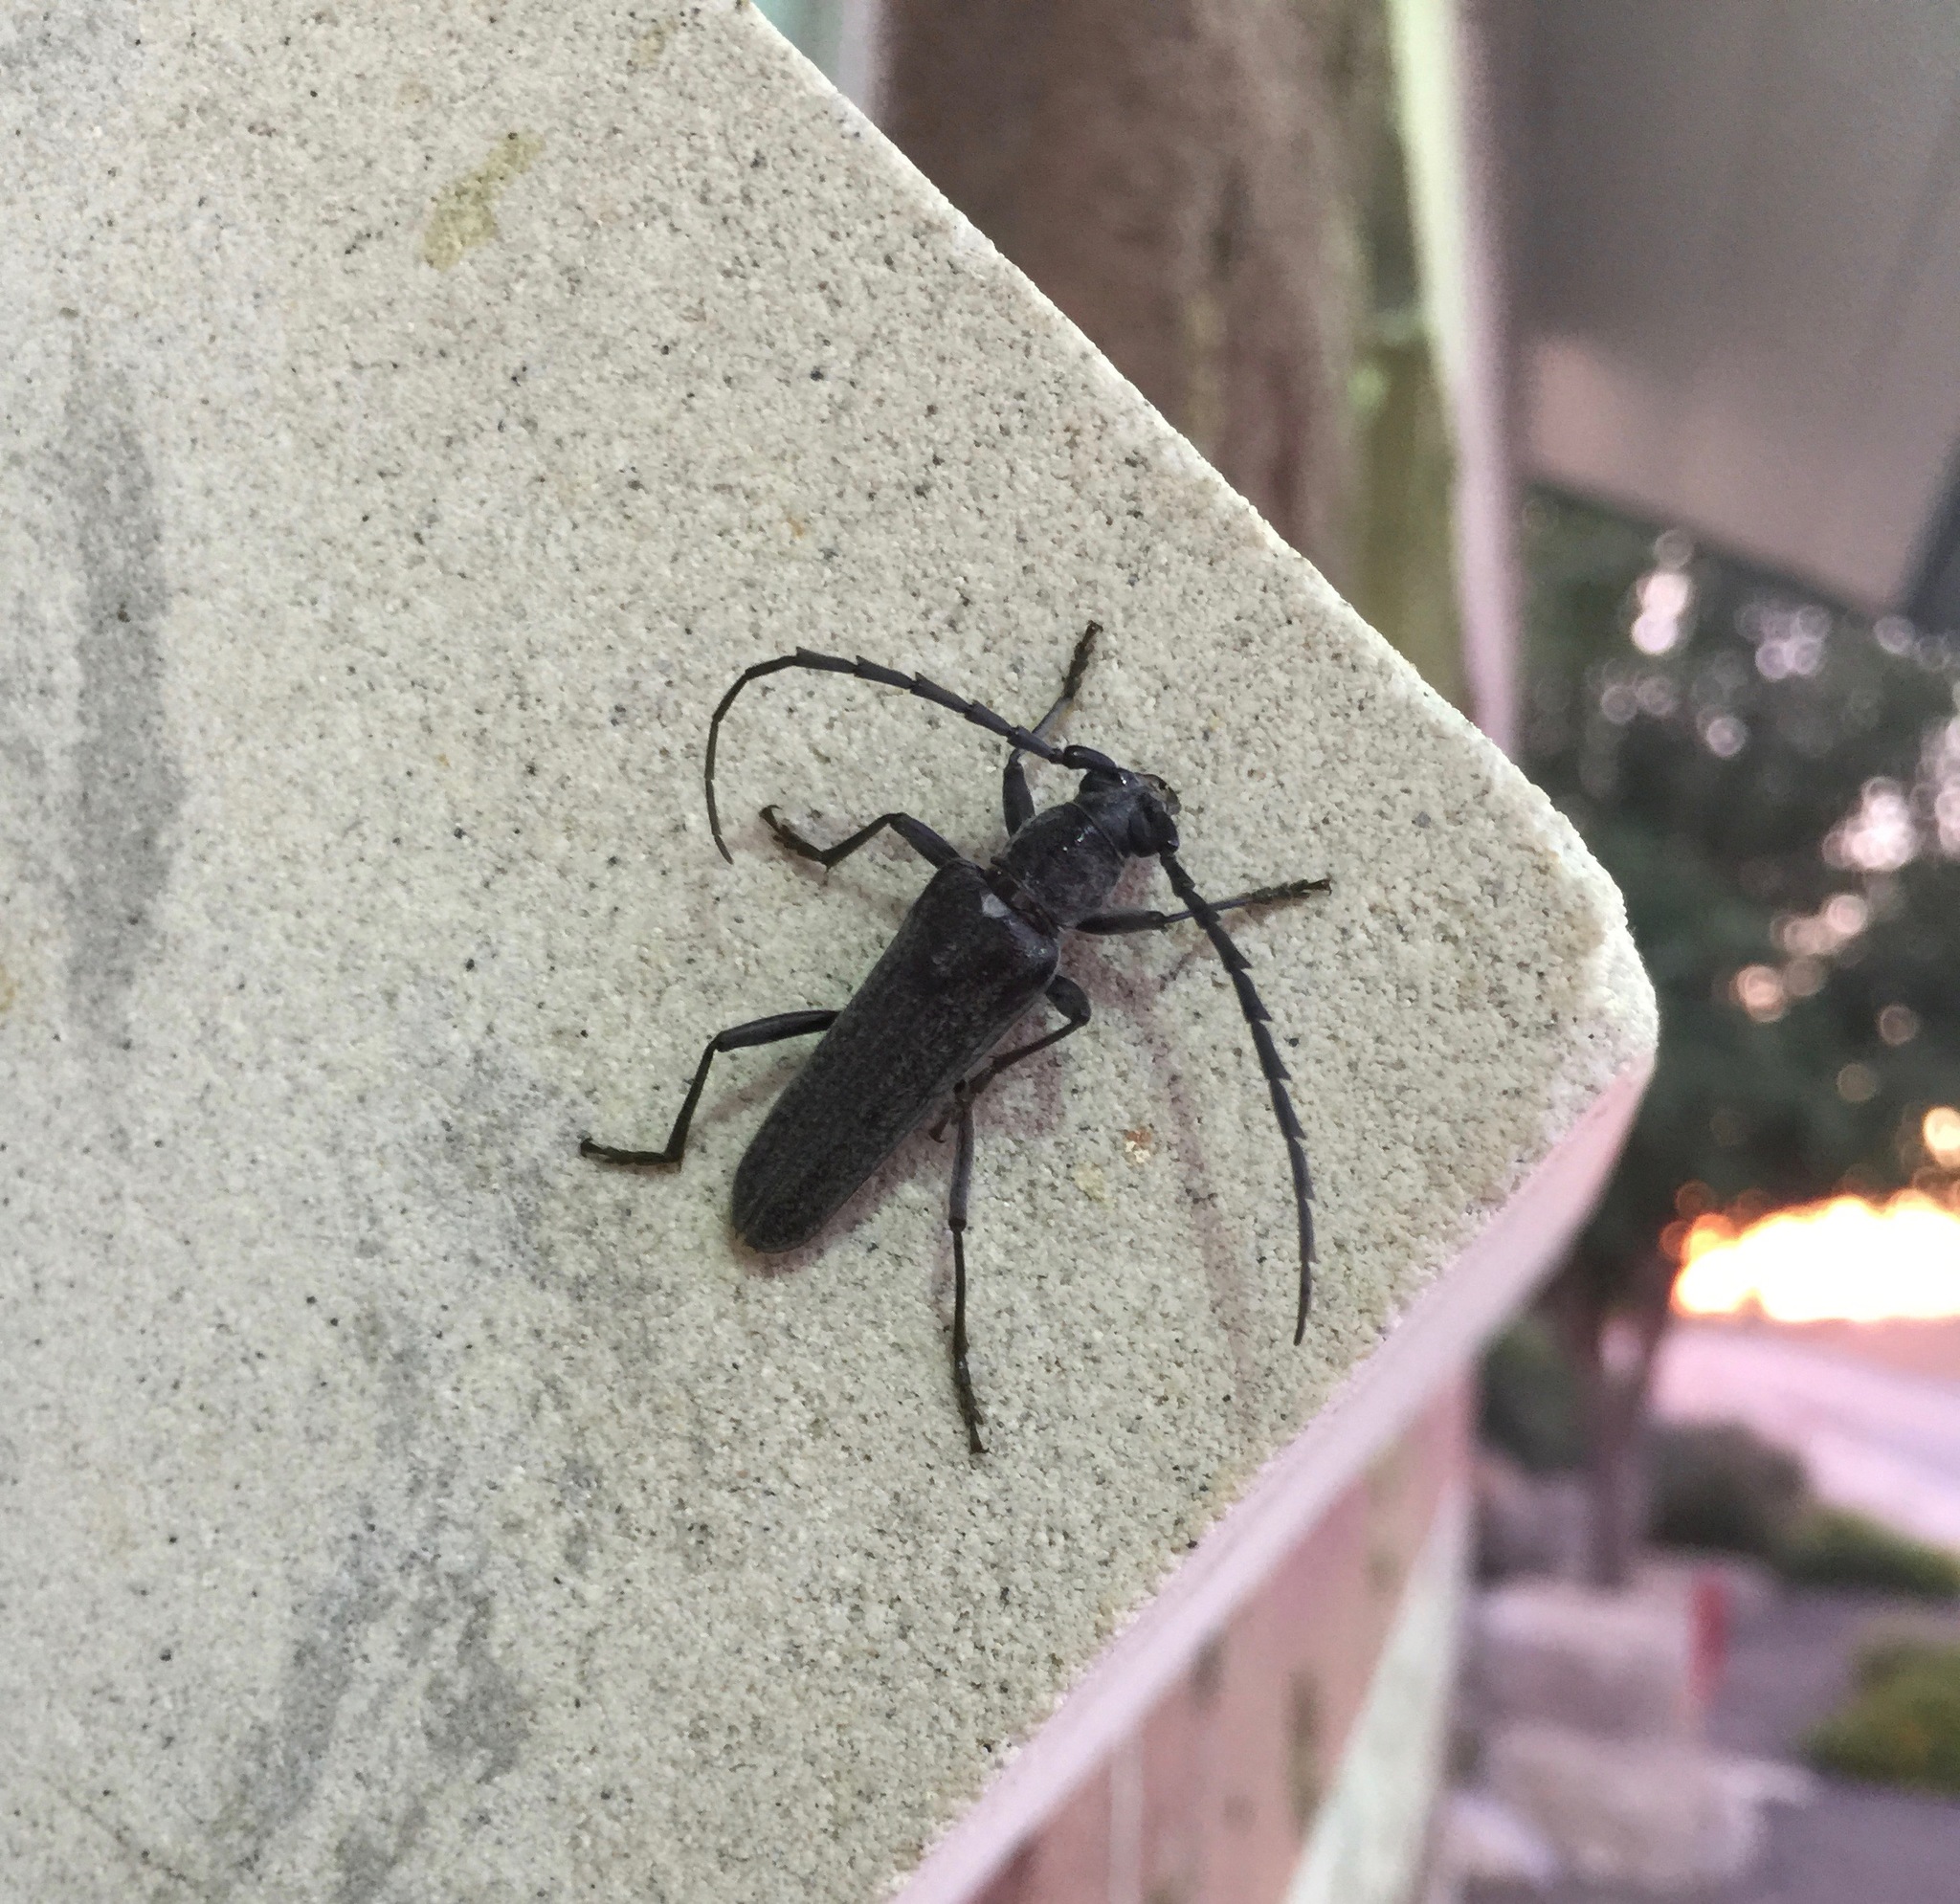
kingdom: Animalia
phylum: Arthropoda
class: Insecta
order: Coleoptera
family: Cerambycidae
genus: Aneflus
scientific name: Aneflus obscurus
